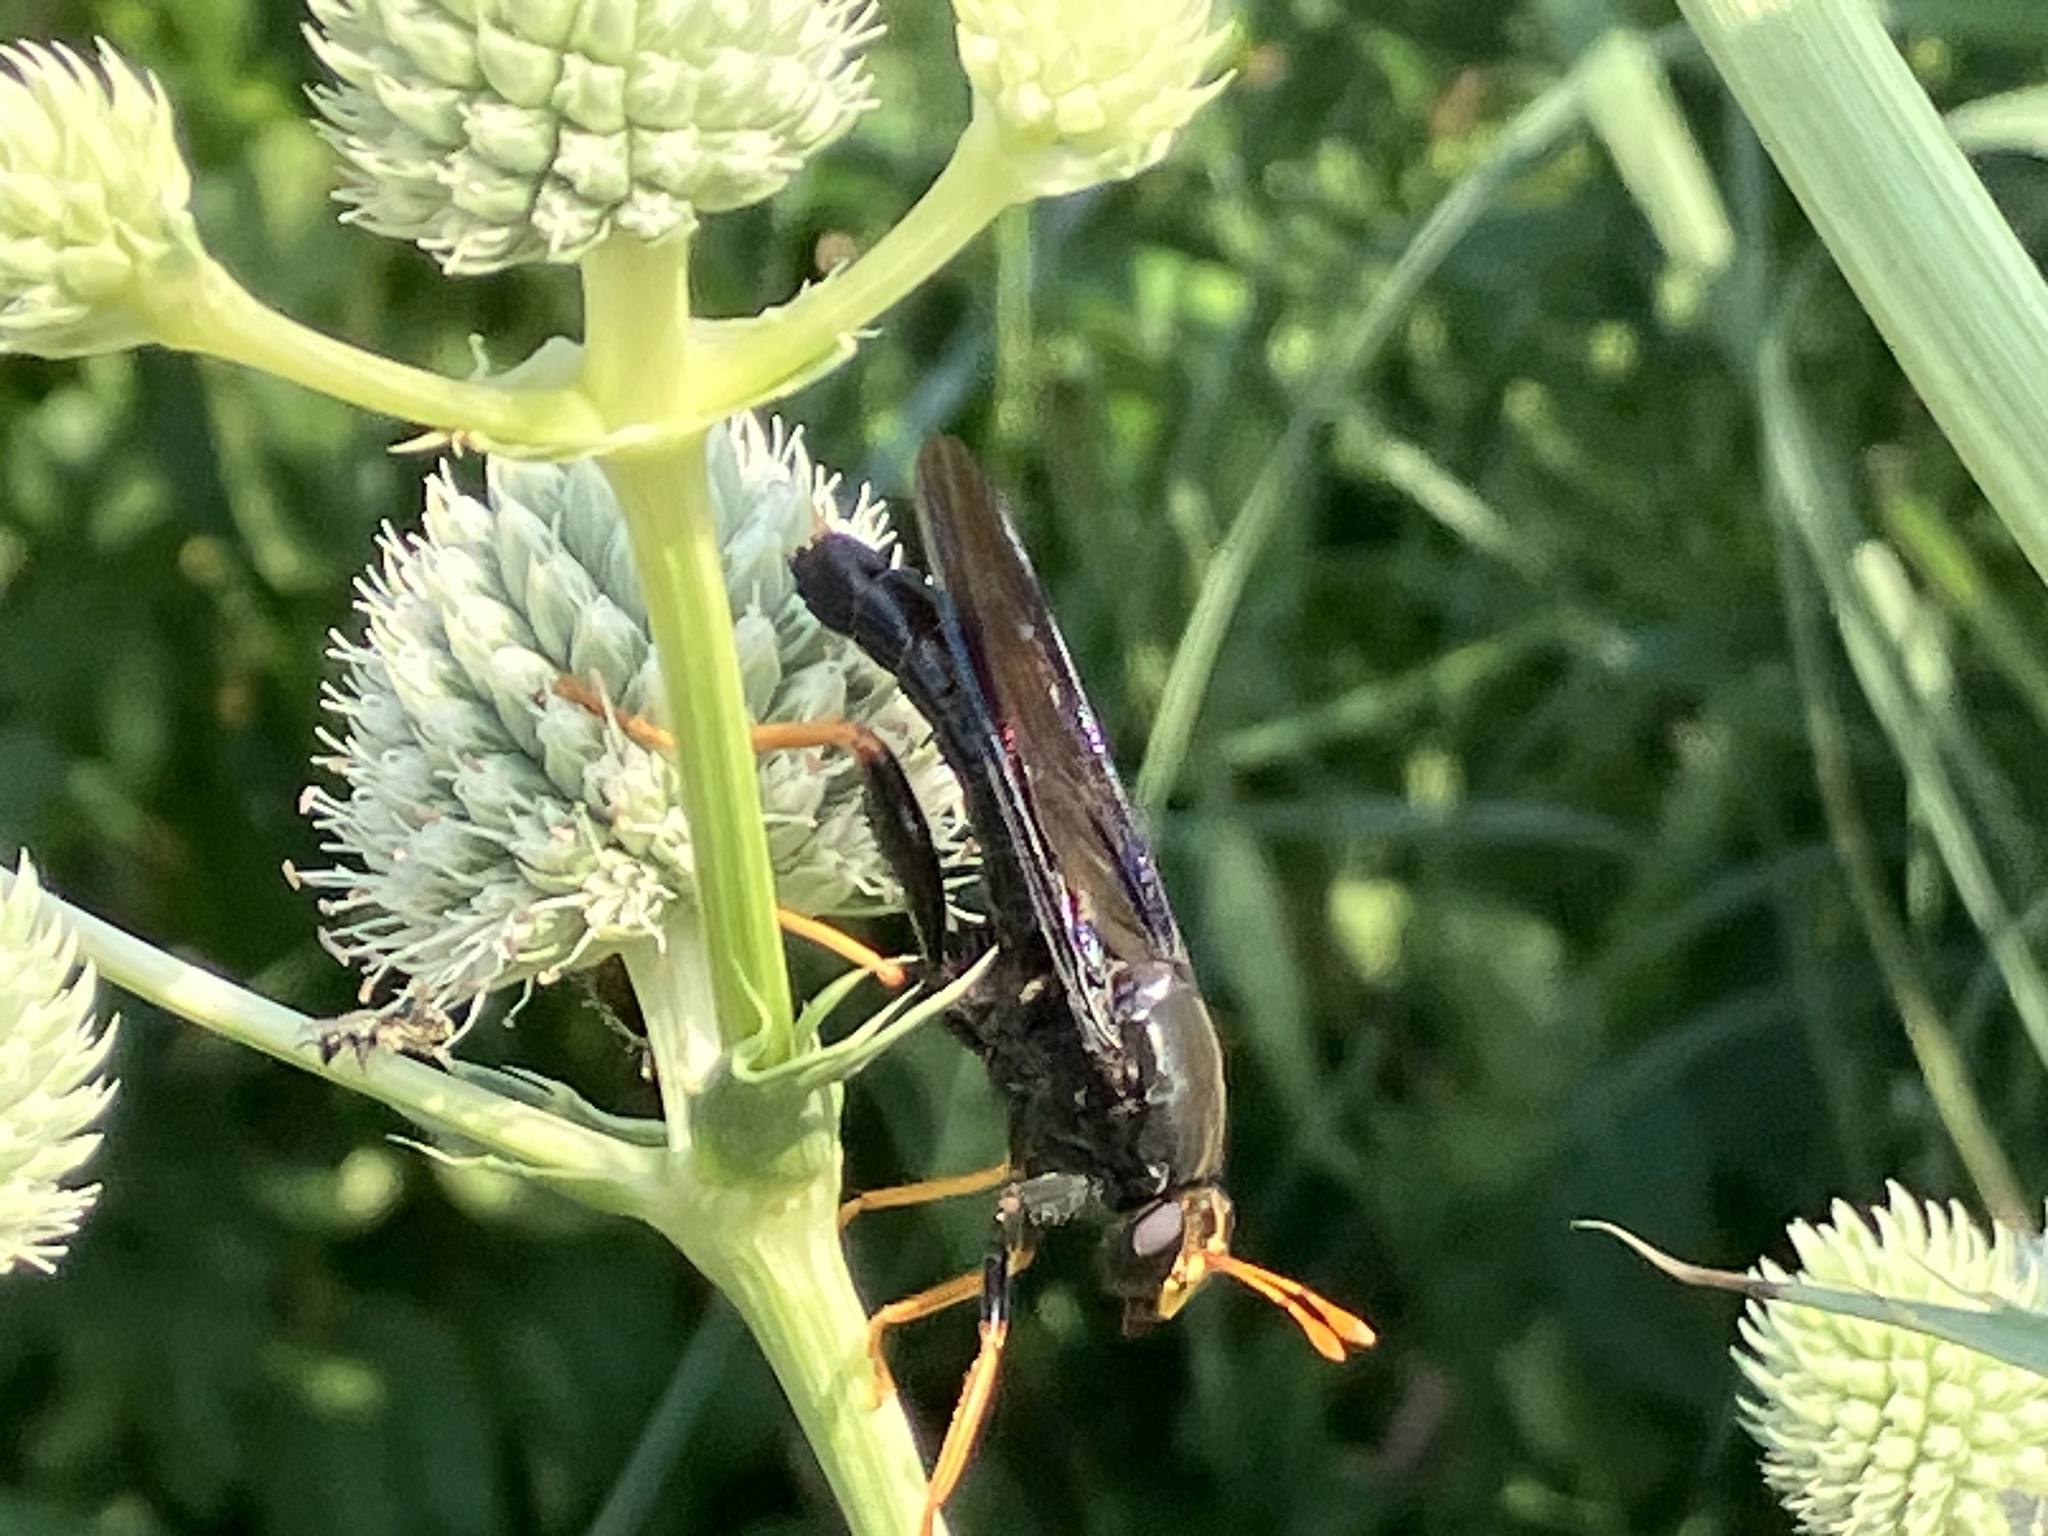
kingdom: Animalia
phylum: Arthropoda
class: Insecta
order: Diptera
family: Mydidae
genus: Mydas
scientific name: Mydas tibialis
